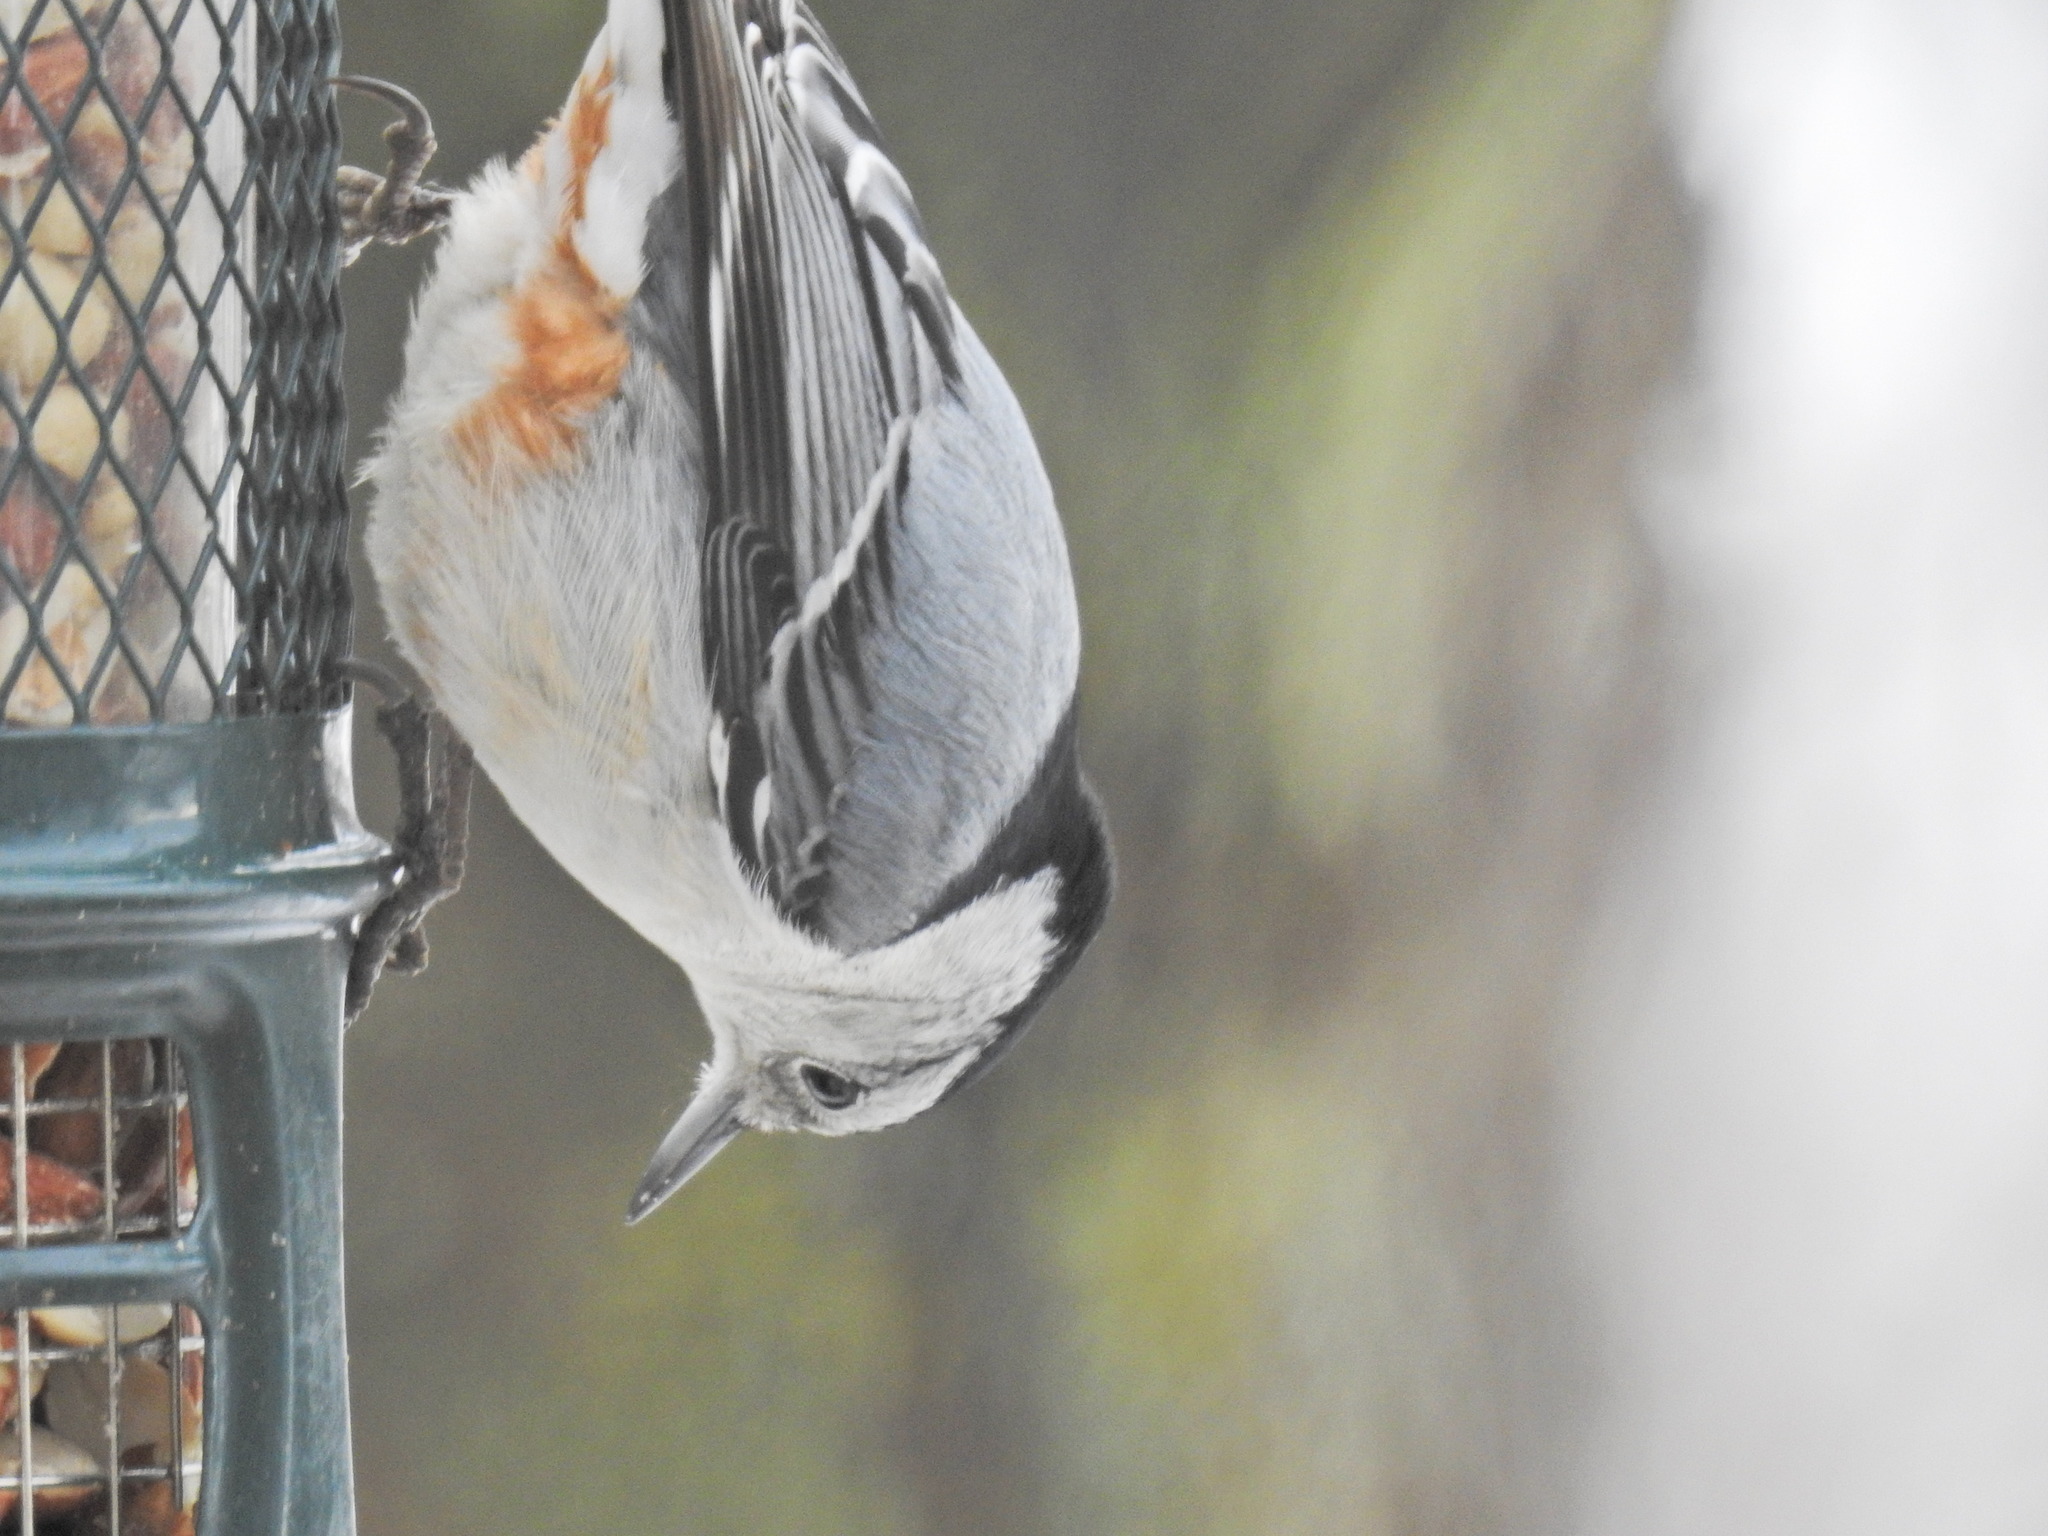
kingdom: Animalia
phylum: Chordata
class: Aves
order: Passeriformes
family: Sittidae
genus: Sitta
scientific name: Sitta carolinensis
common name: White-breasted nuthatch
